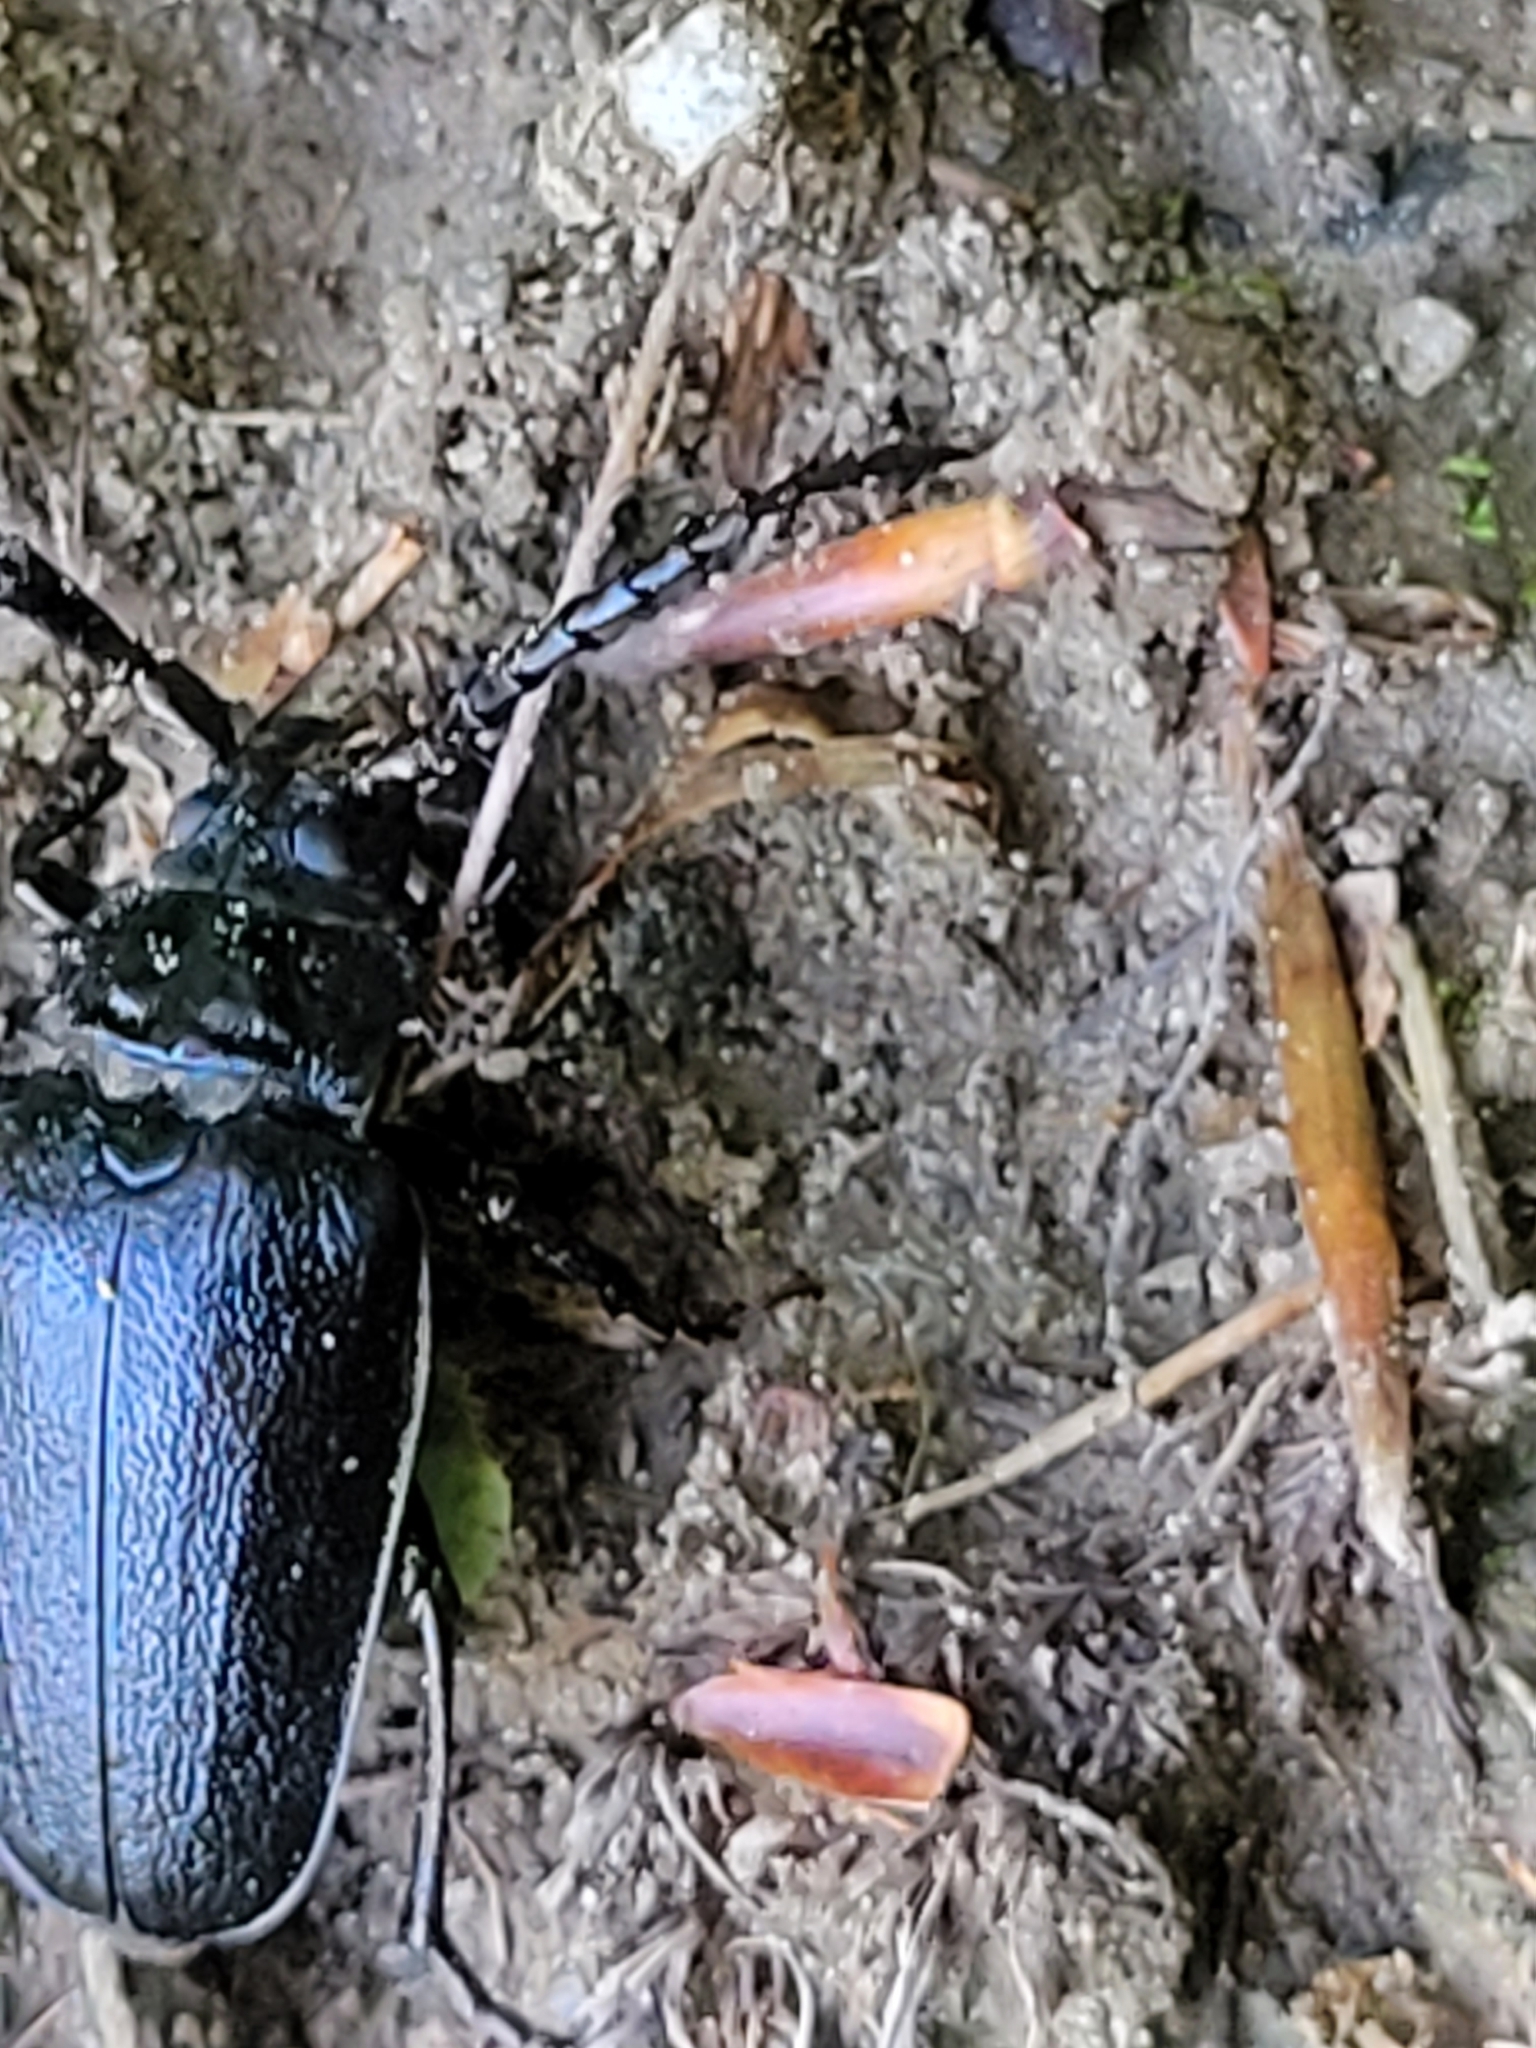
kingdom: Animalia
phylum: Arthropoda
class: Insecta
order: Coleoptera
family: Cerambycidae
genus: Prionus
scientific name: Prionus laticollis
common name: Broad necked prionus
